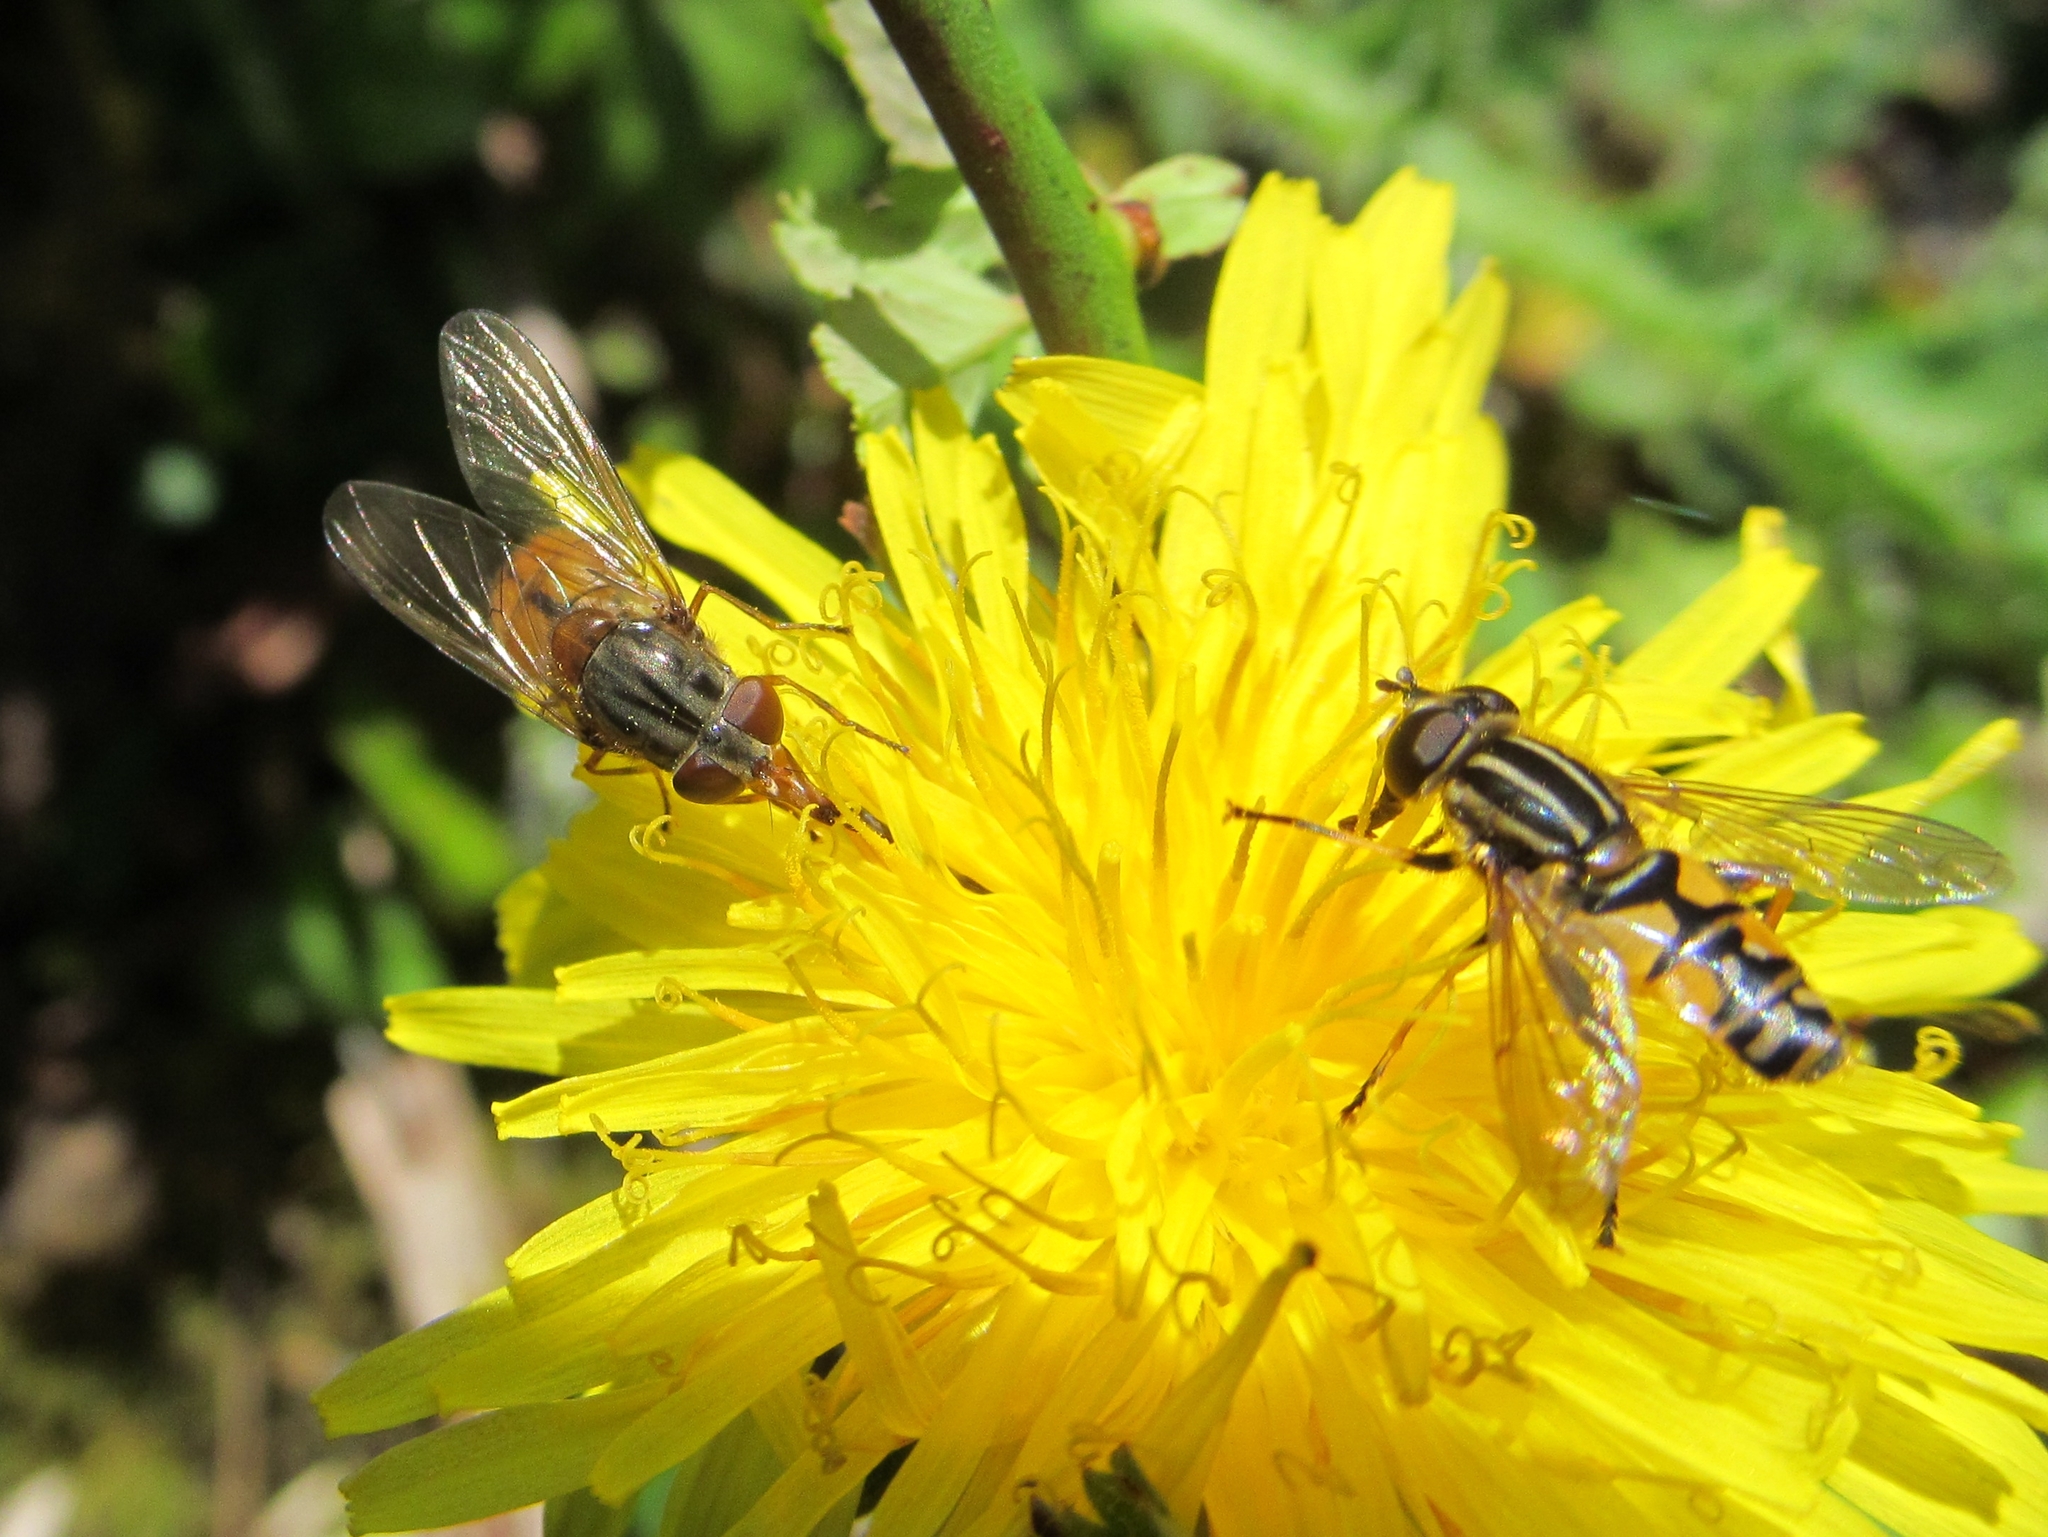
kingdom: Animalia
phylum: Arthropoda
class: Insecta
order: Diptera
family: Syrphidae
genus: Helophilus
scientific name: Helophilus pendulus
